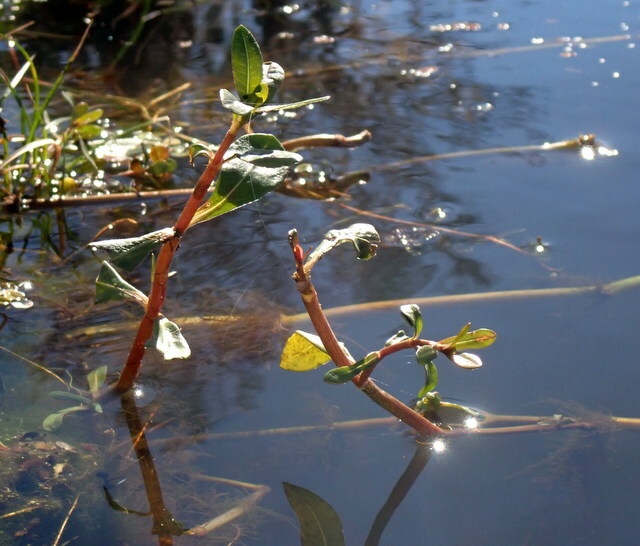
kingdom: Plantae
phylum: Tracheophyta
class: Magnoliopsida
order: Caryophyllales
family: Amaranthaceae
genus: Alternanthera
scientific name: Alternanthera philoxeroides
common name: Alligatorweed
